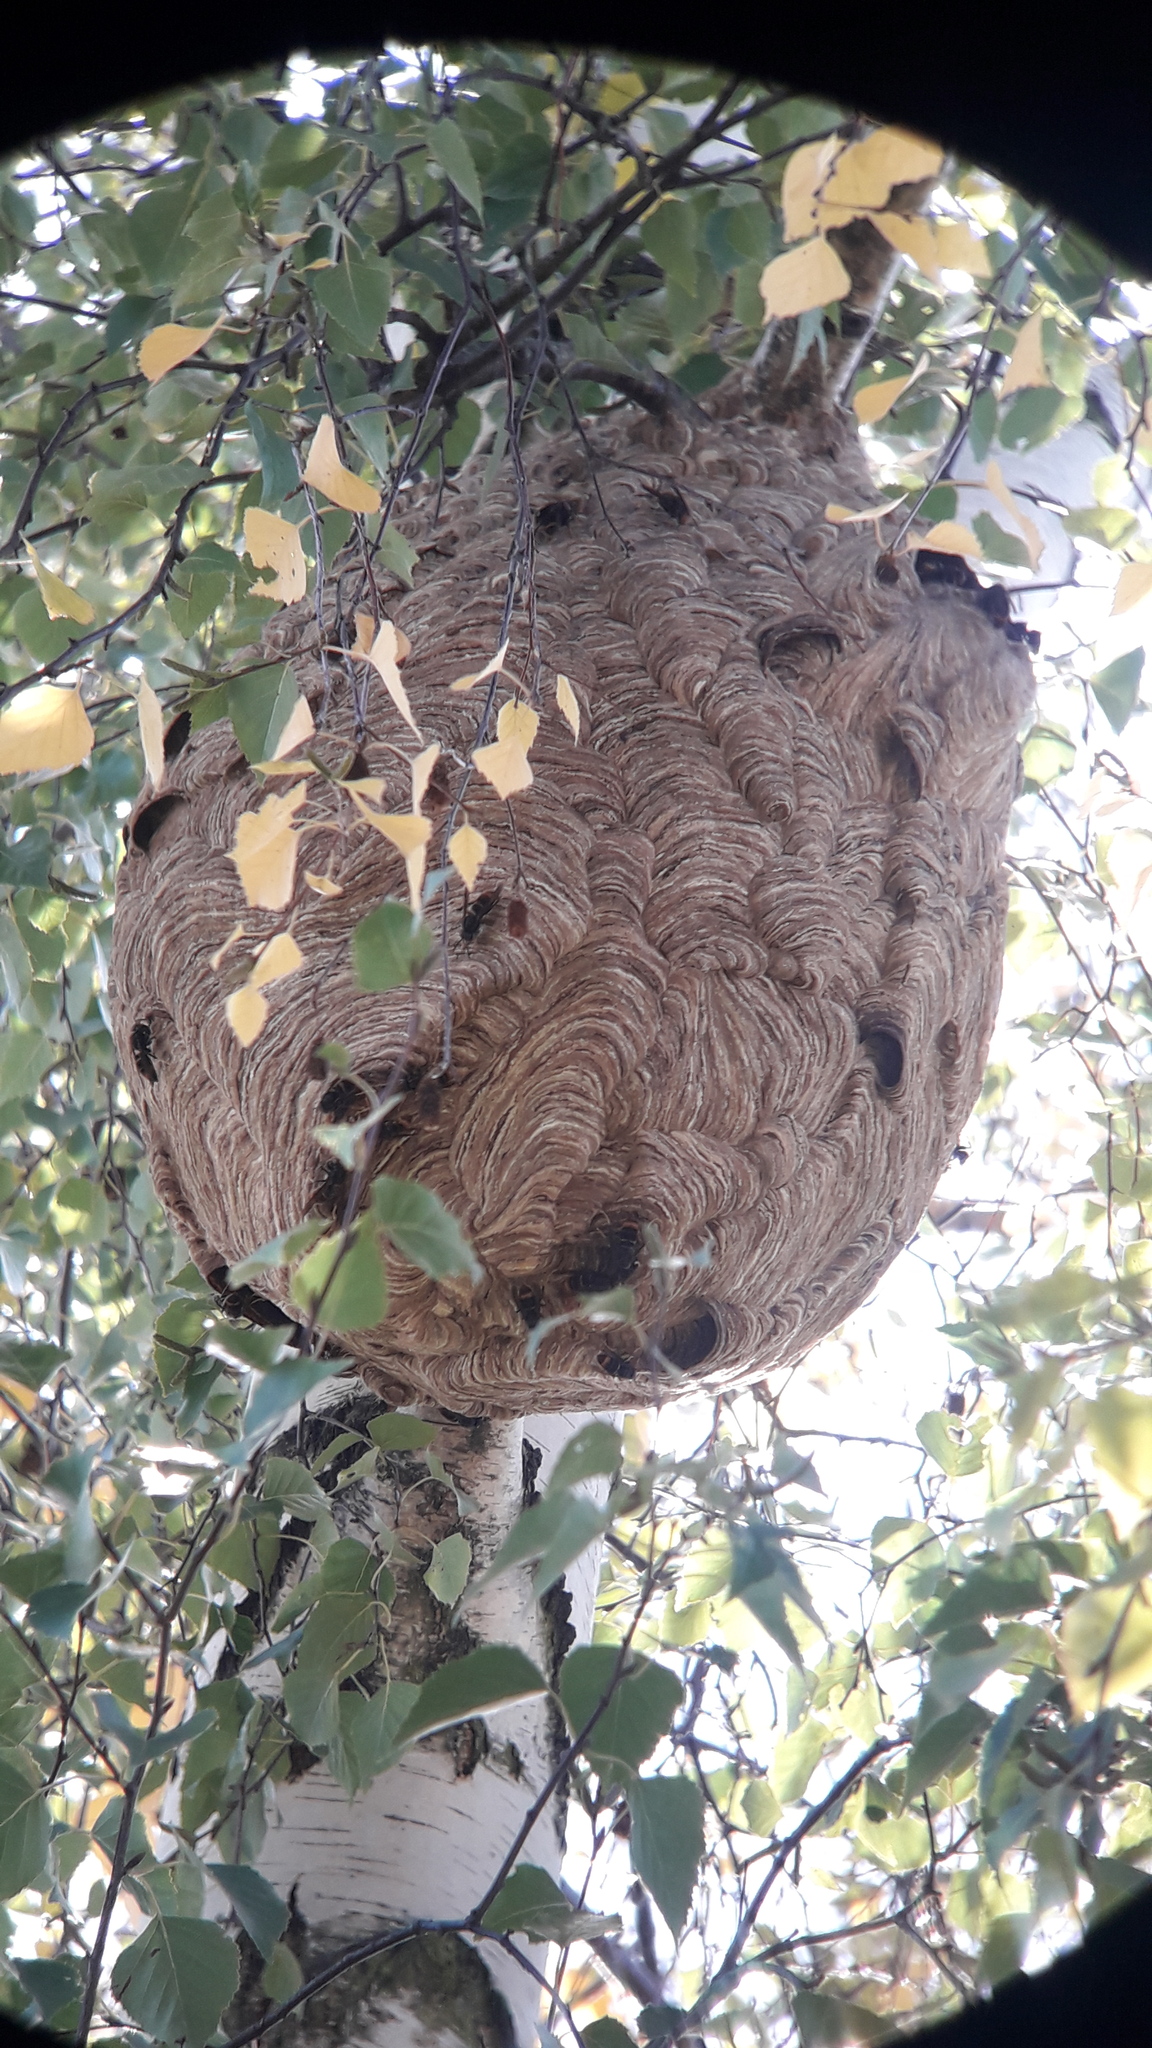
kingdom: Animalia
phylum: Arthropoda
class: Insecta
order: Hymenoptera
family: Vespidae
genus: Vespa
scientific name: Vespa velutina
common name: Asian hornet
